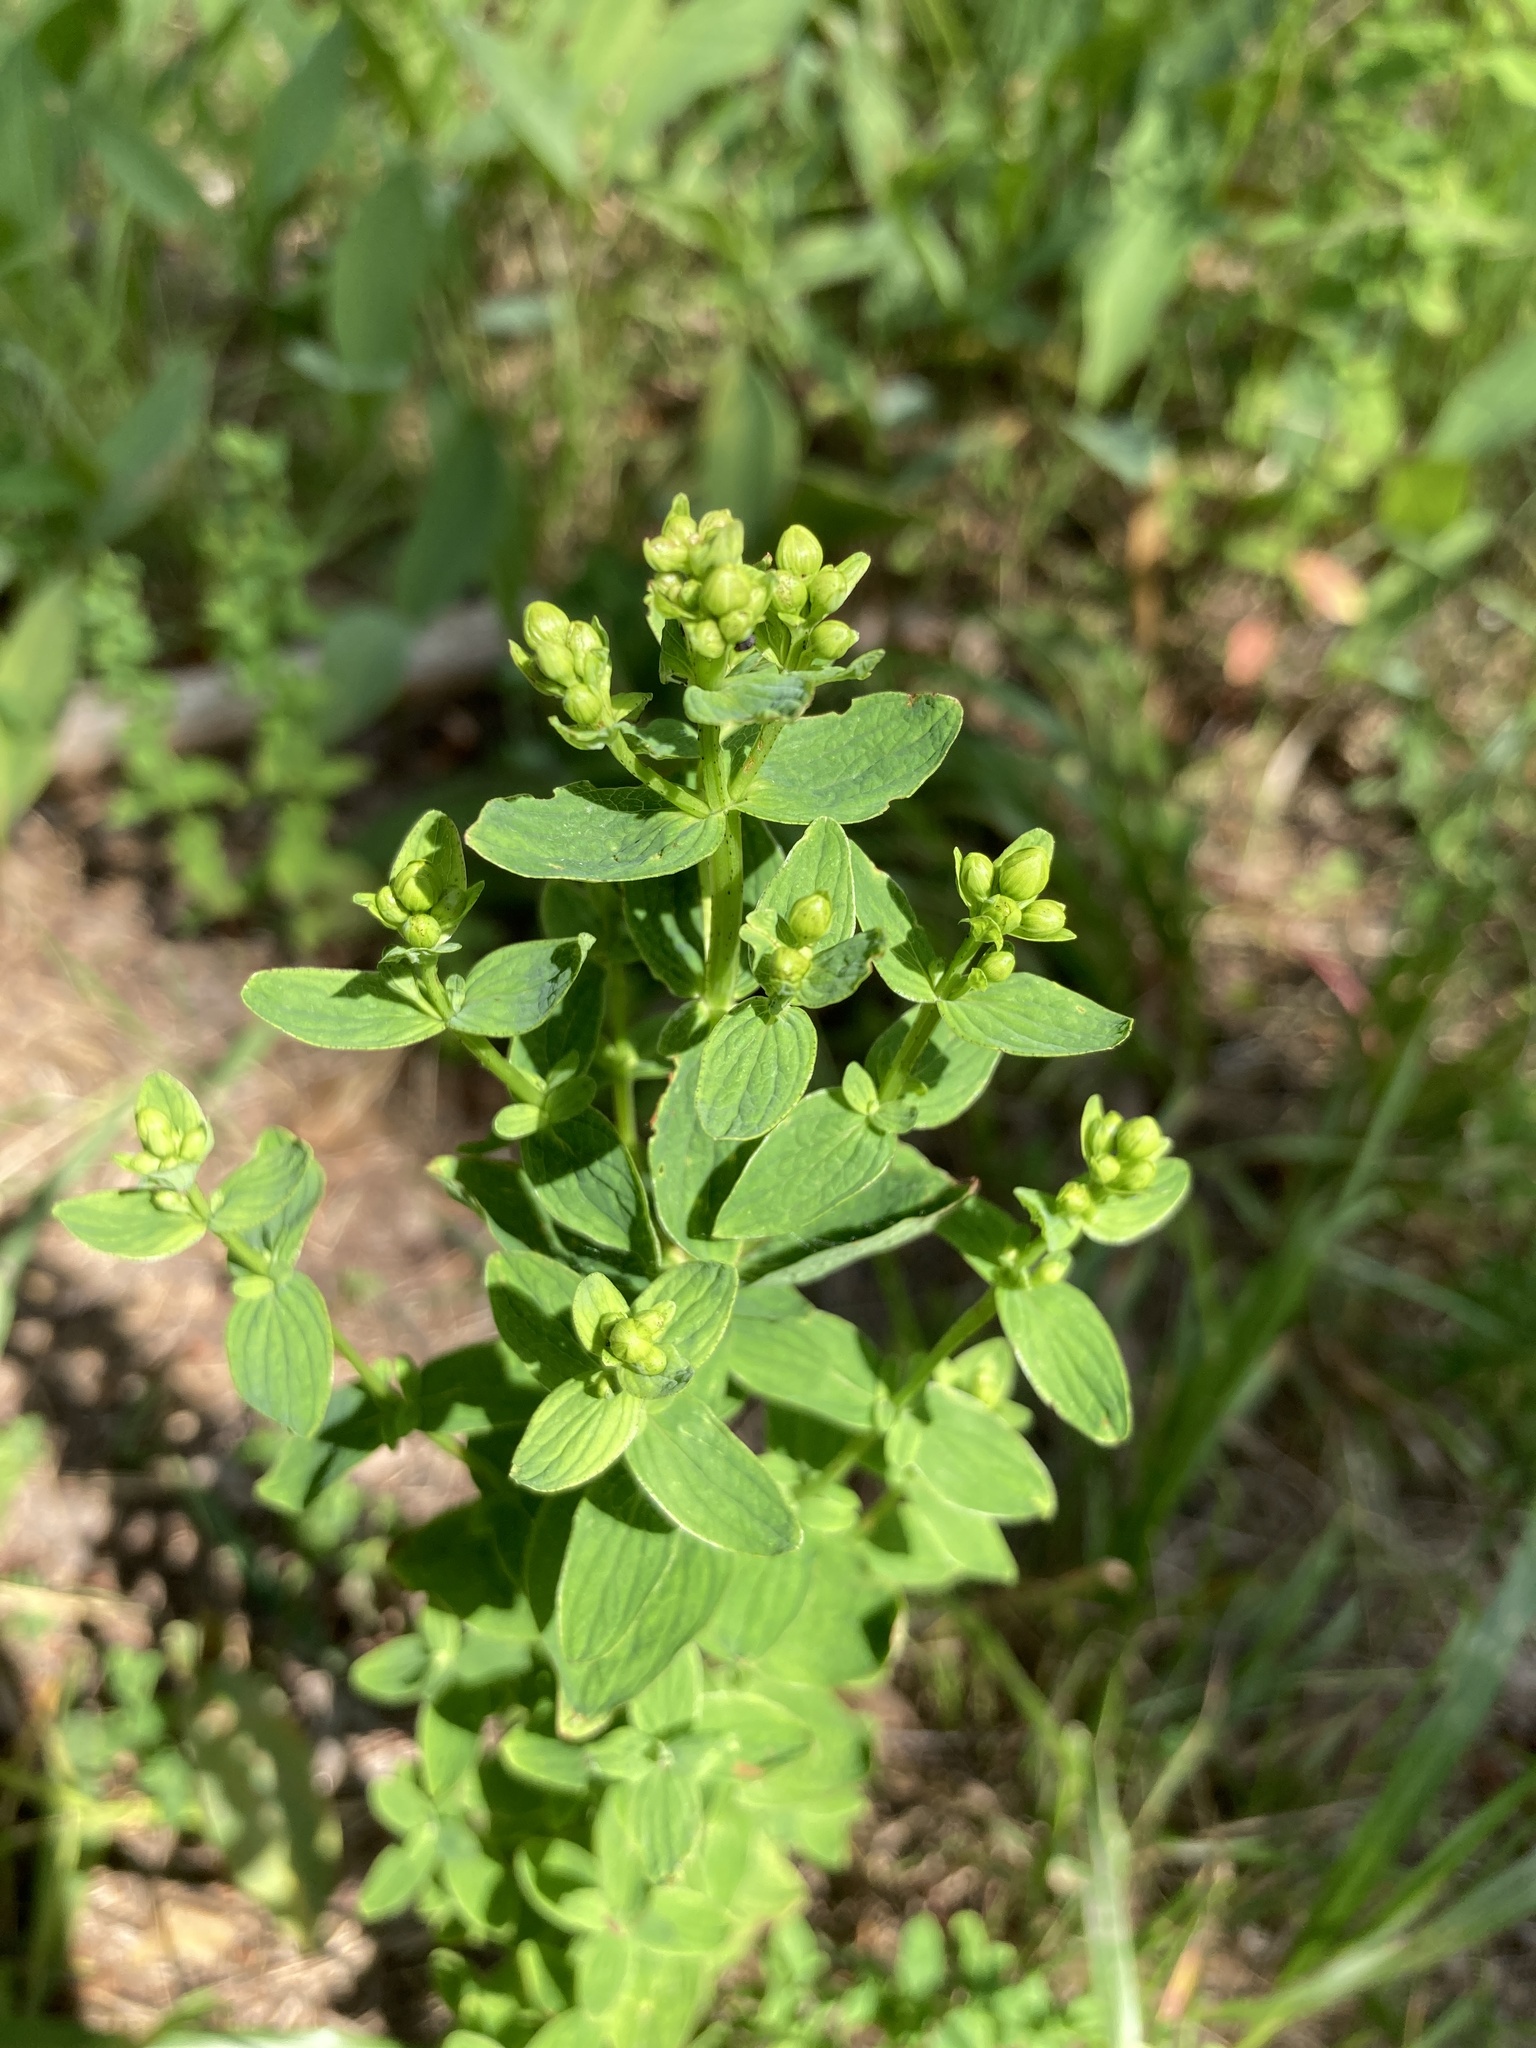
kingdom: Plantae
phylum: Tracheophyta
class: Magnoliopsida
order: Malpighiales
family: Hypericaceae
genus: Hypericum
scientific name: Hypericum maculatum
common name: Imperforate st. john's-wort
